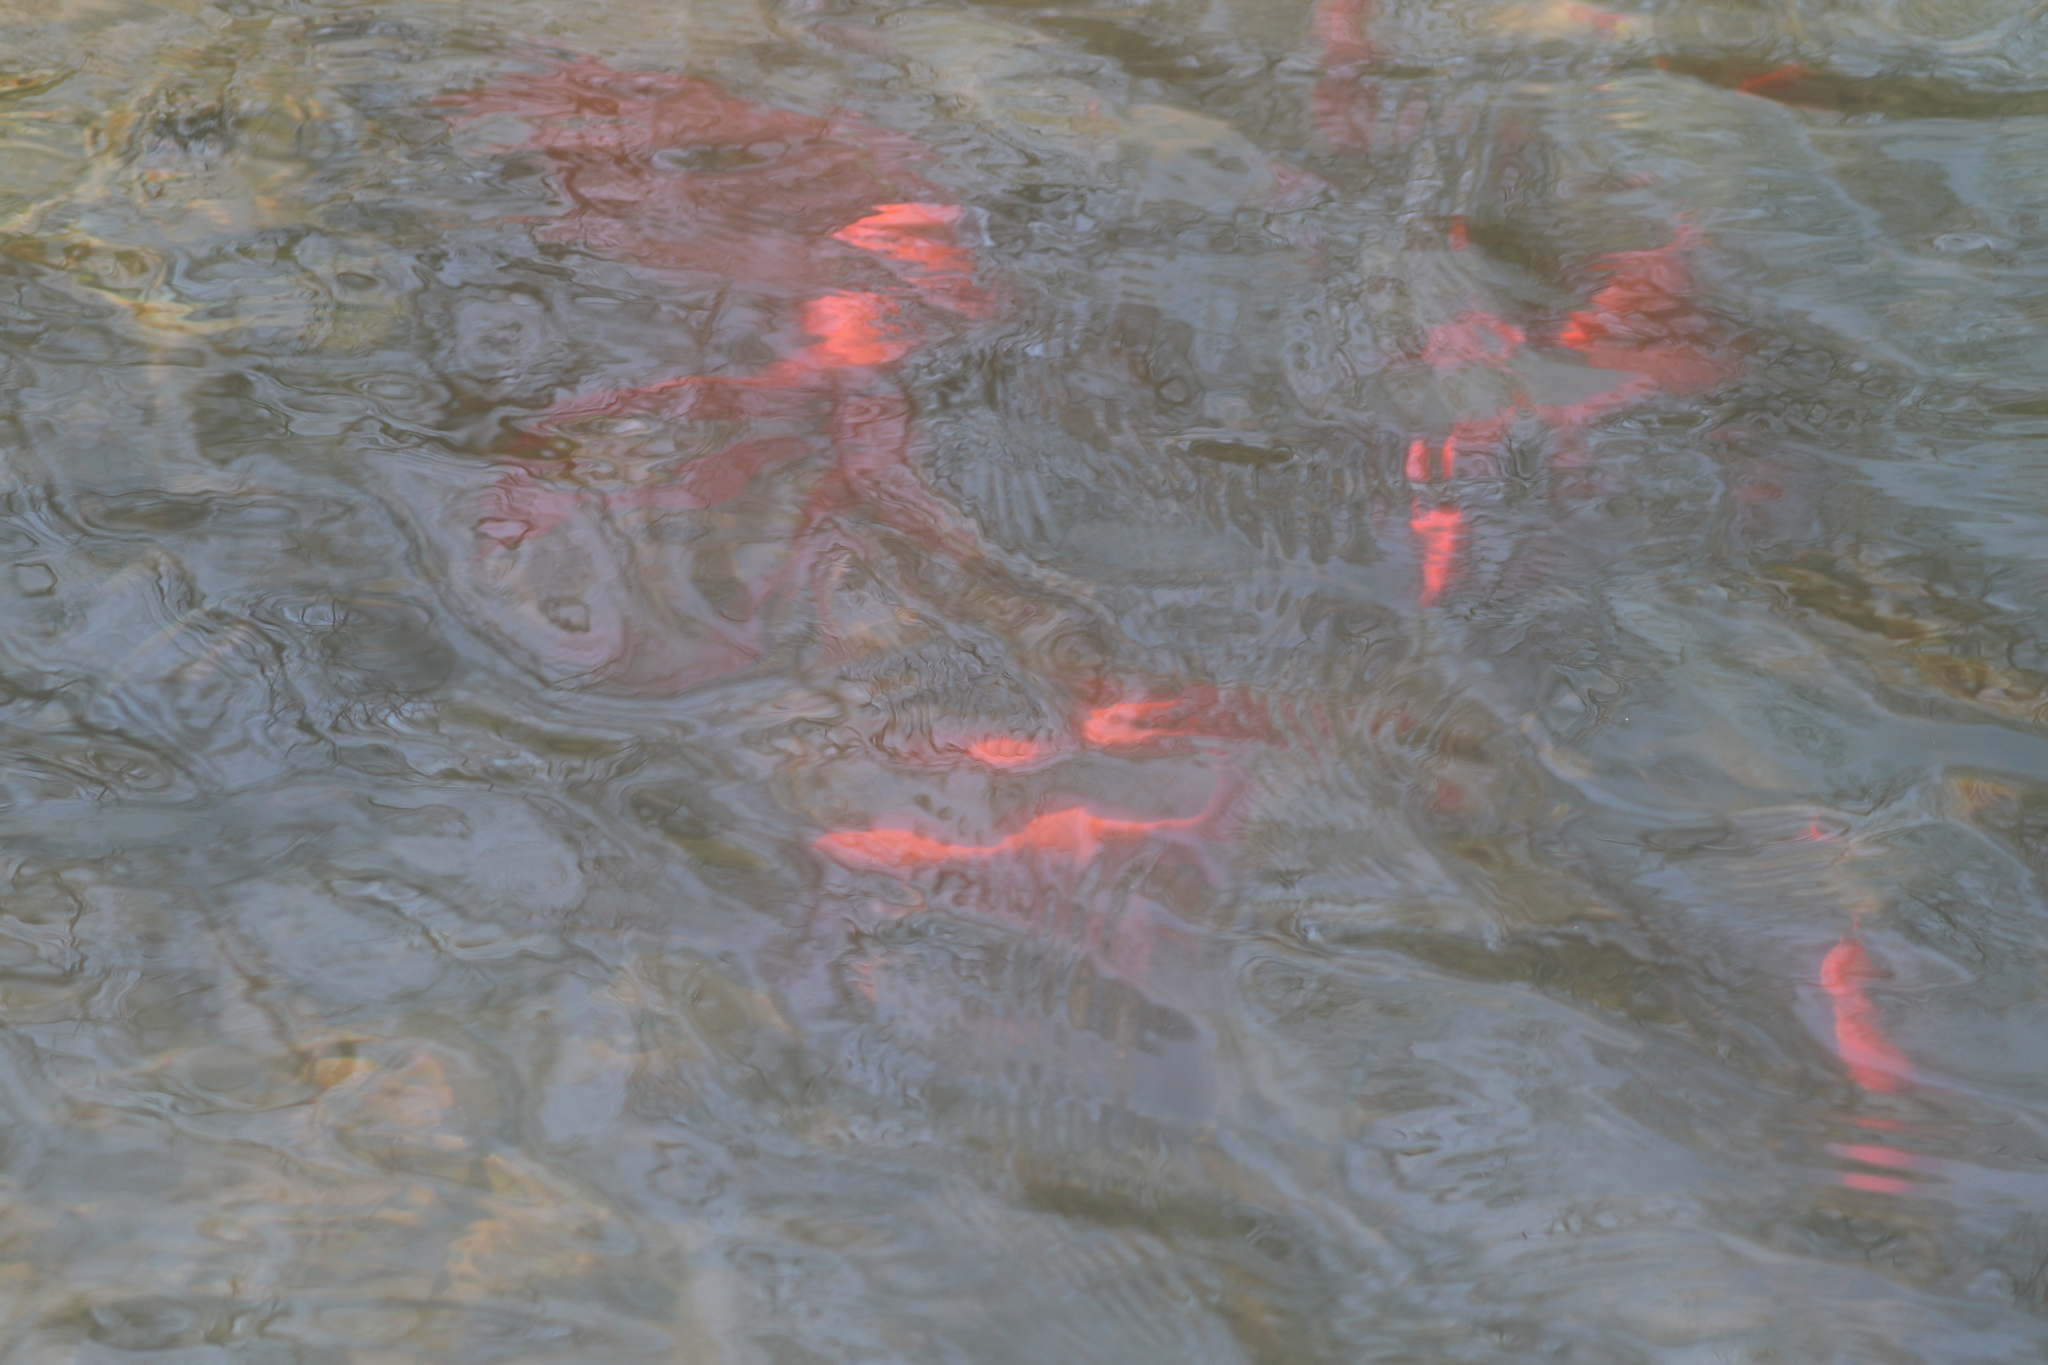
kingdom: Animalia
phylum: Chordata
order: Cypriniformes
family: Cyprinidae
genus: Carassius
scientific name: Carassius auratus
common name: Goldfish
